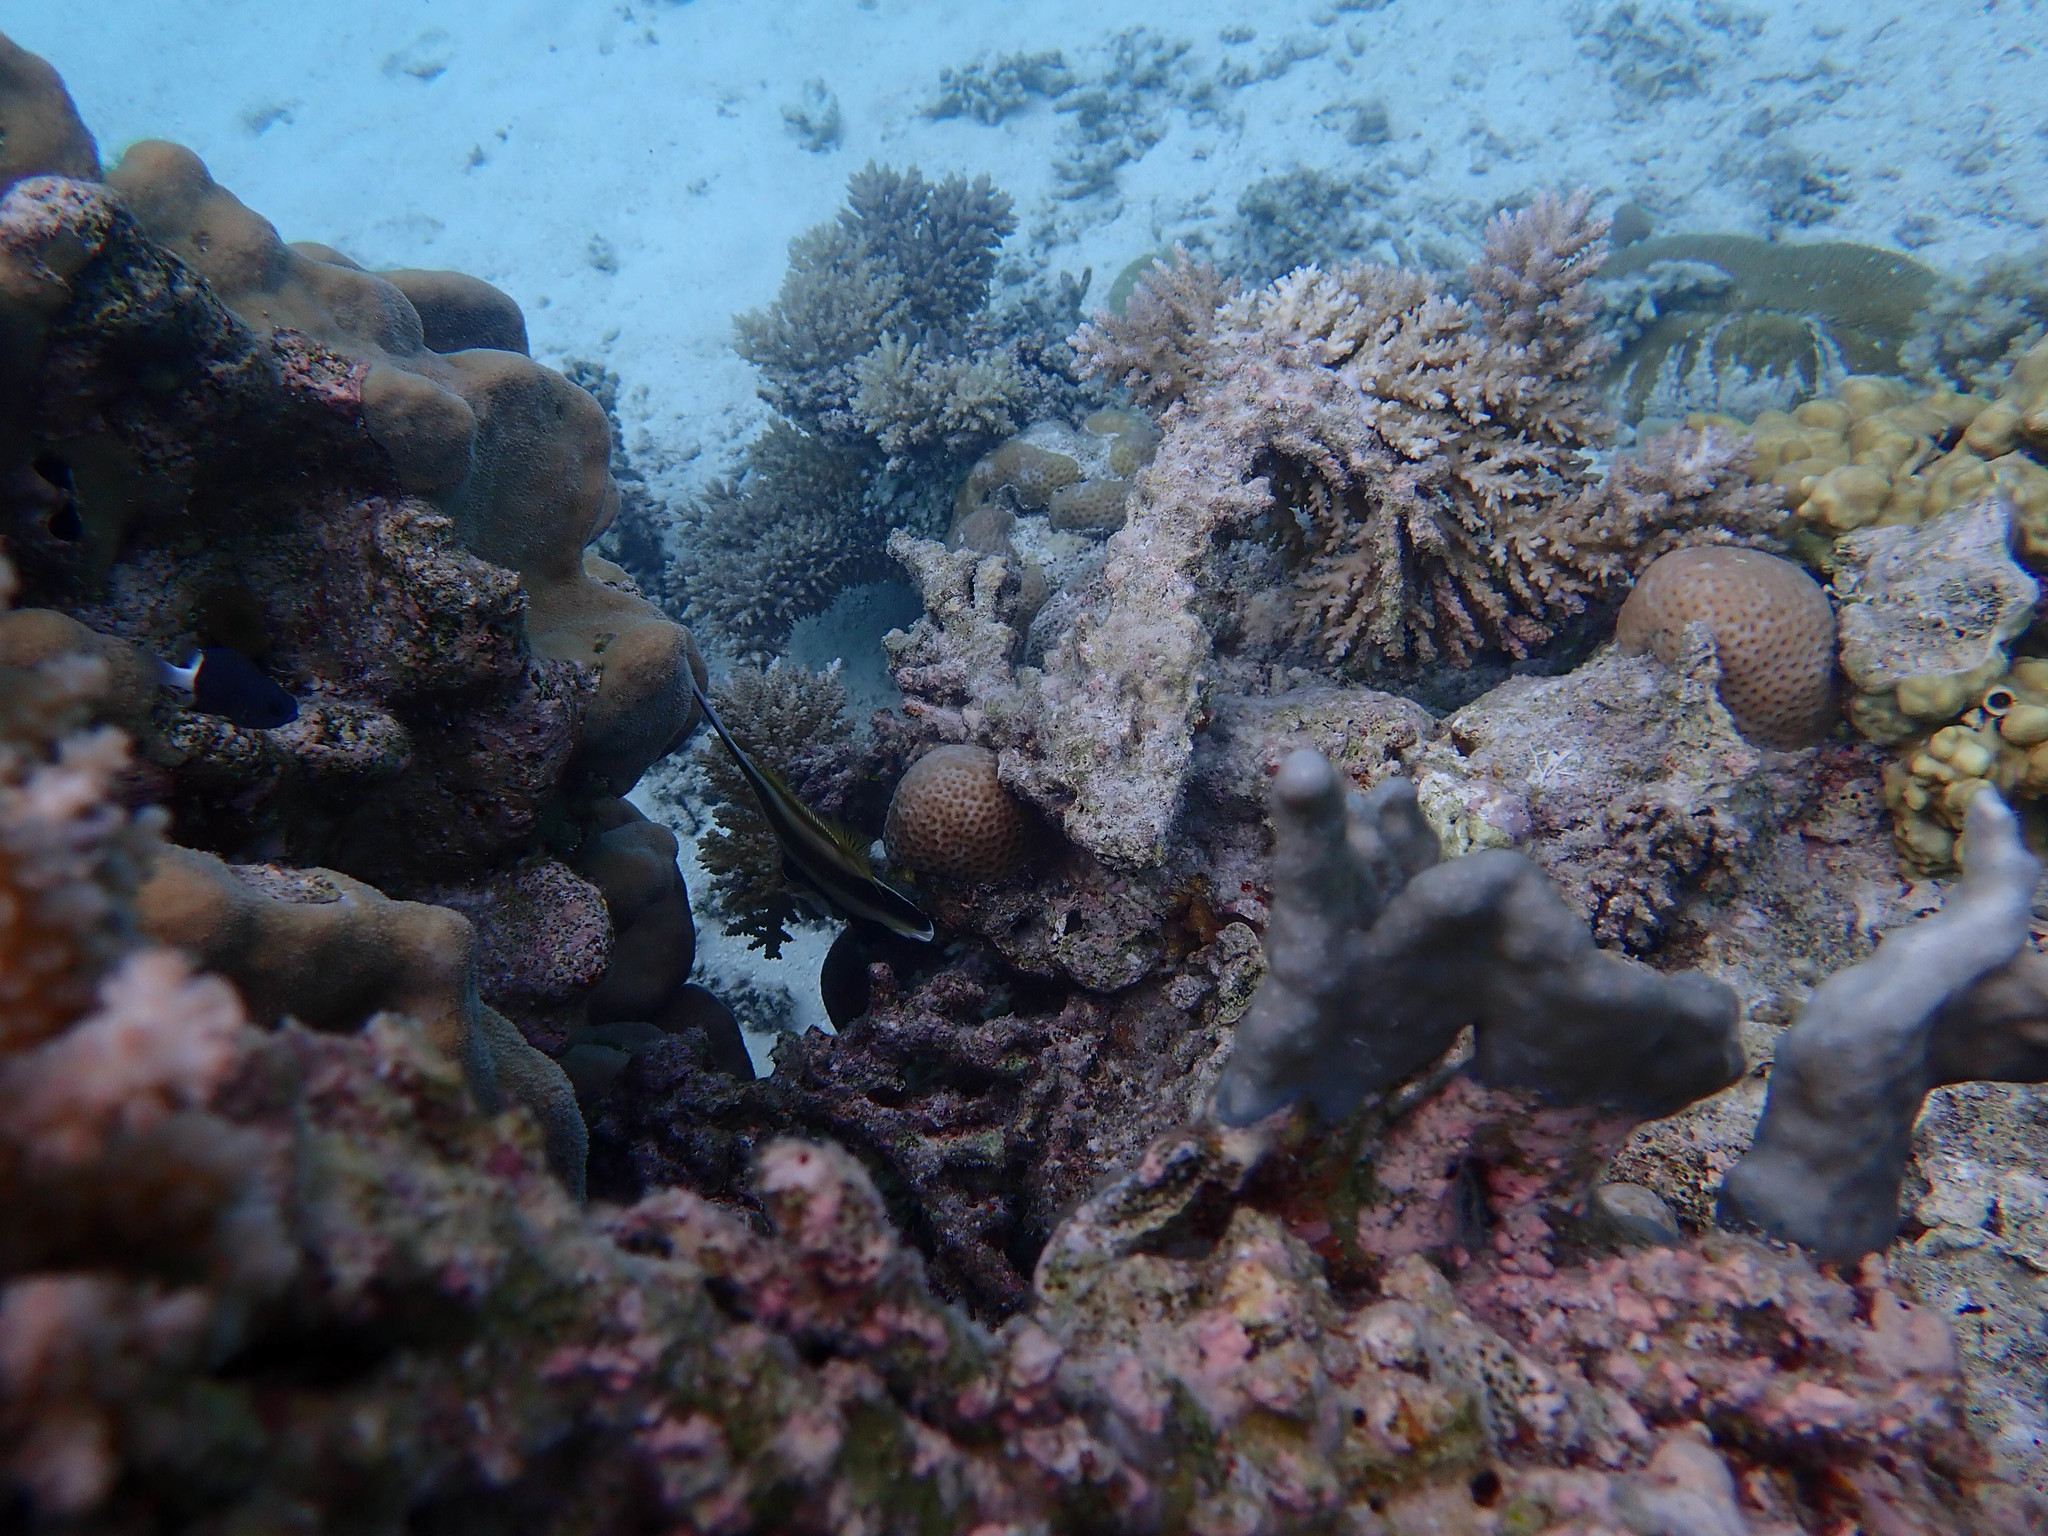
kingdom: Animalia
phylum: Chordata
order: Perciformes
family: Chaetodontidae
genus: Heniochus
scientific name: Heniochus chrysostomus
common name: Horned bannerfish
